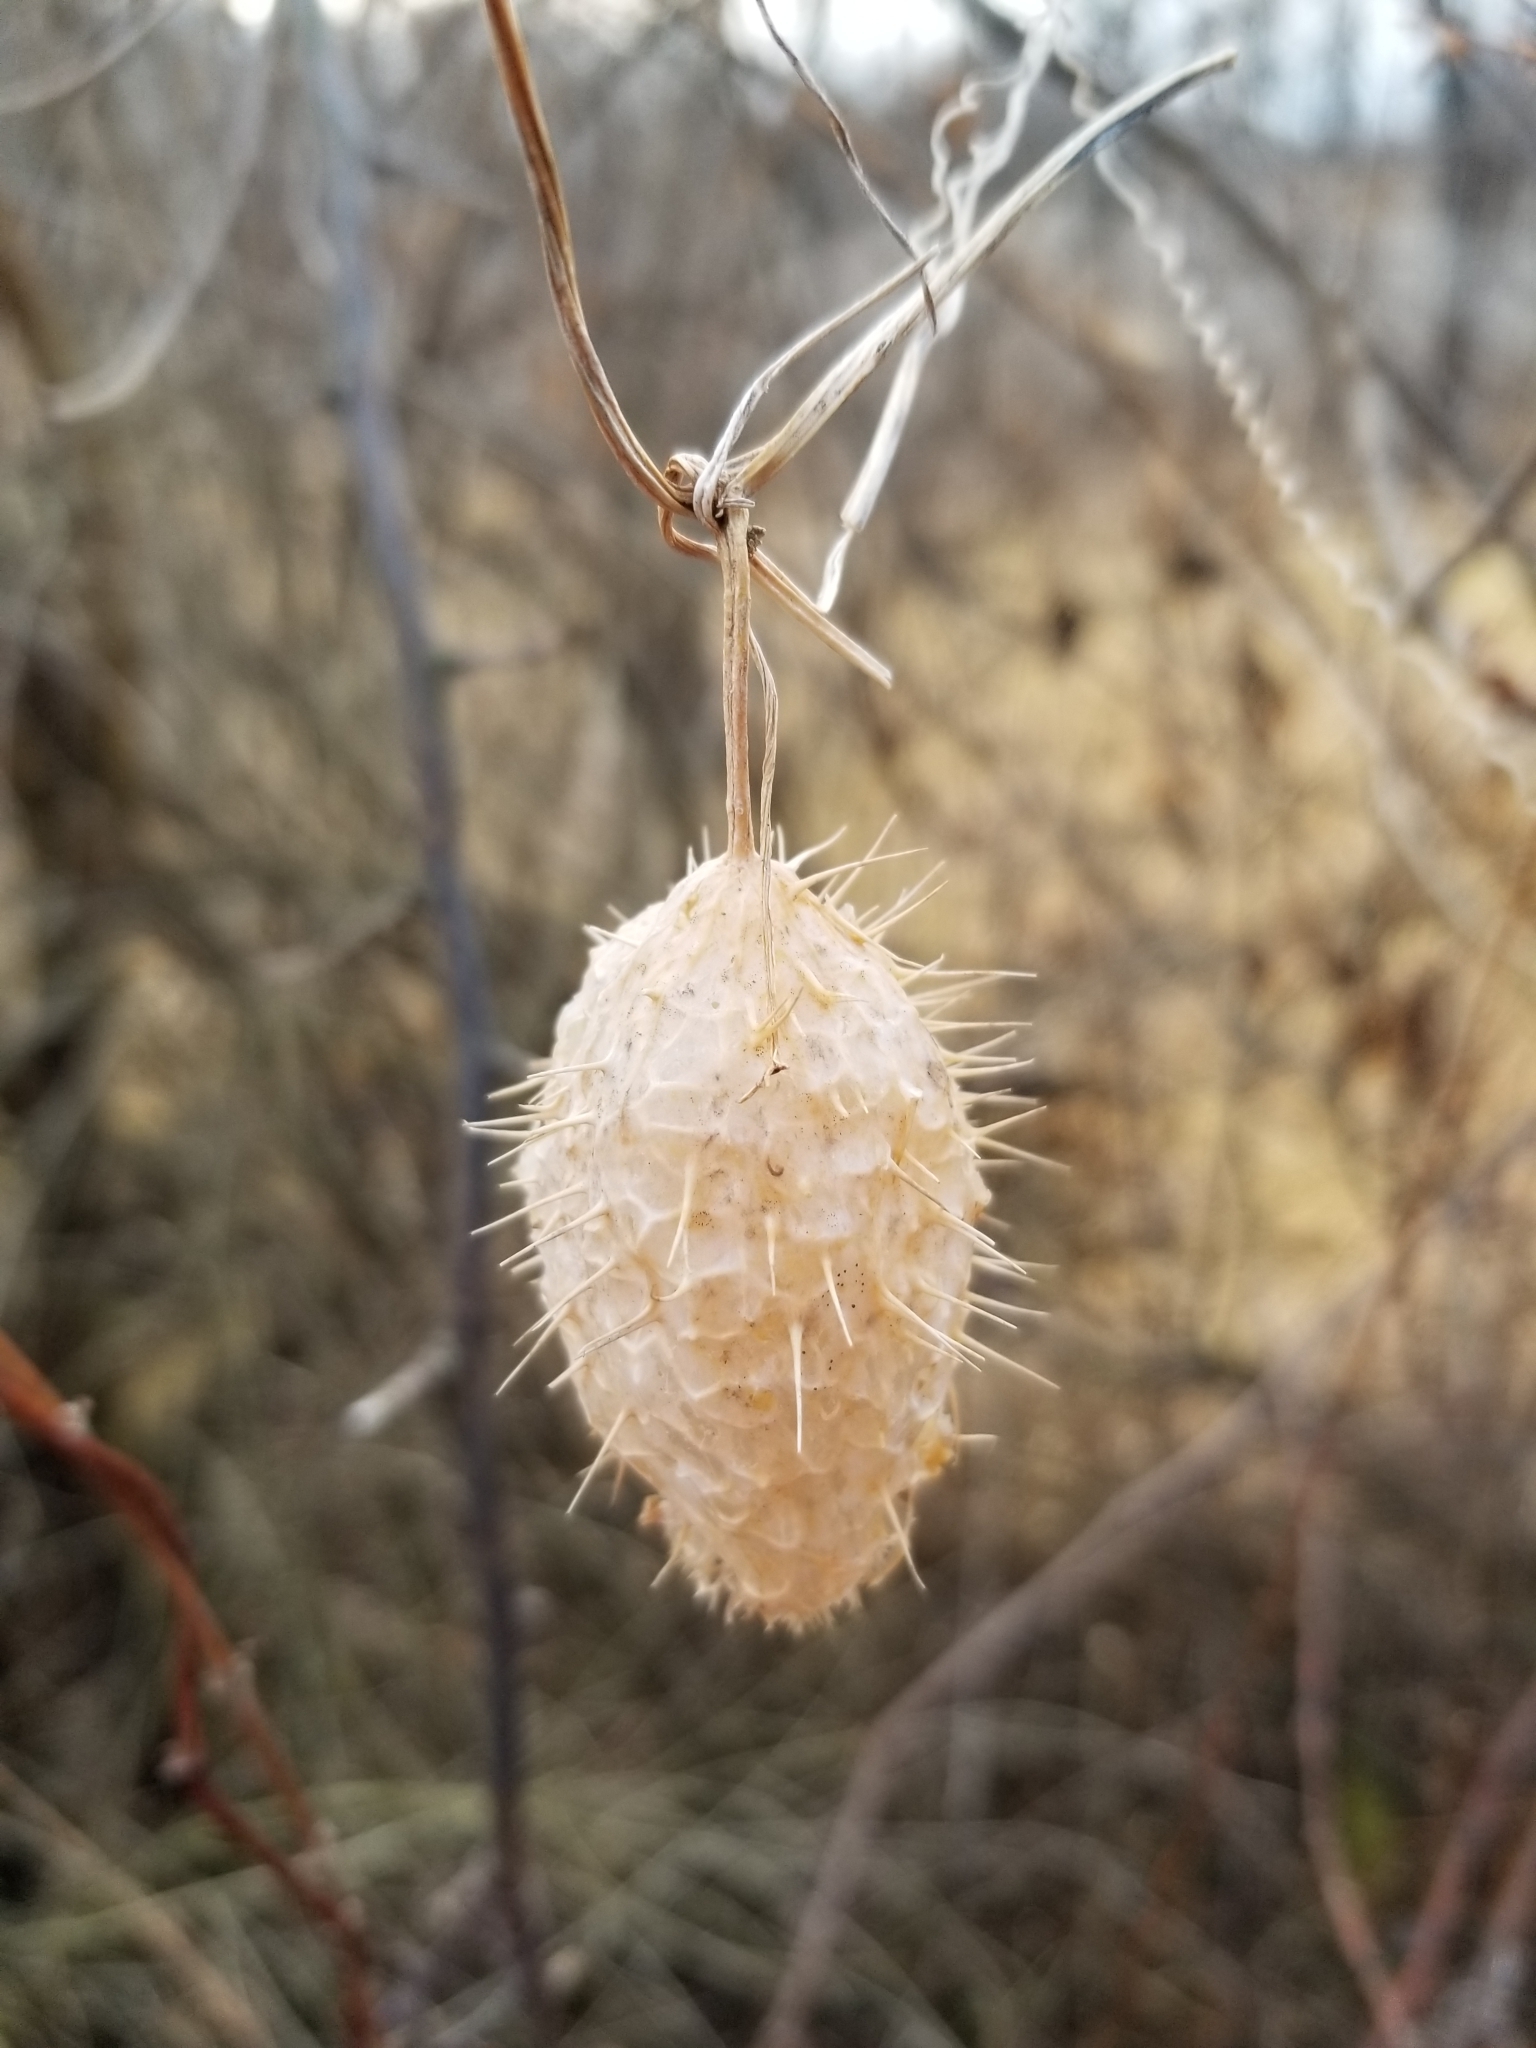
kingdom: Plantae
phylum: Tracheophyta
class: Magnoliopsida
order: Cucurbitales
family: Cucurbitaceae
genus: Echinocystis
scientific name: Echinocystis lobata
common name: Wild cucumber
